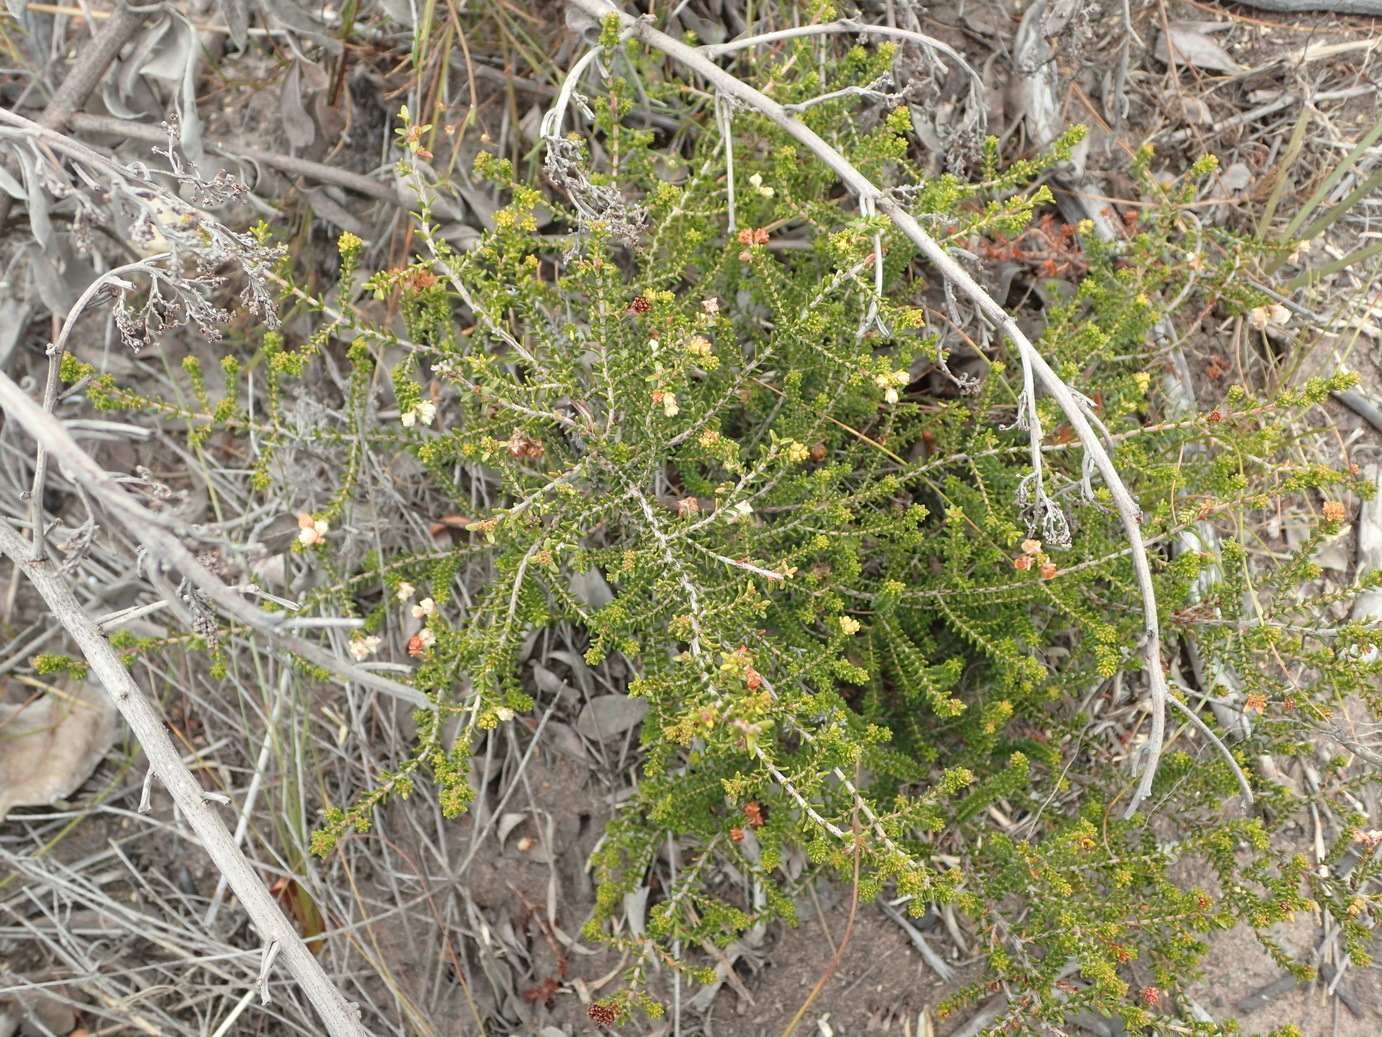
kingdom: Plantae
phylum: Tracheophyta
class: Magnoliopsida
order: Ericales
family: Ericaceae
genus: Erica
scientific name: Erica formosa
